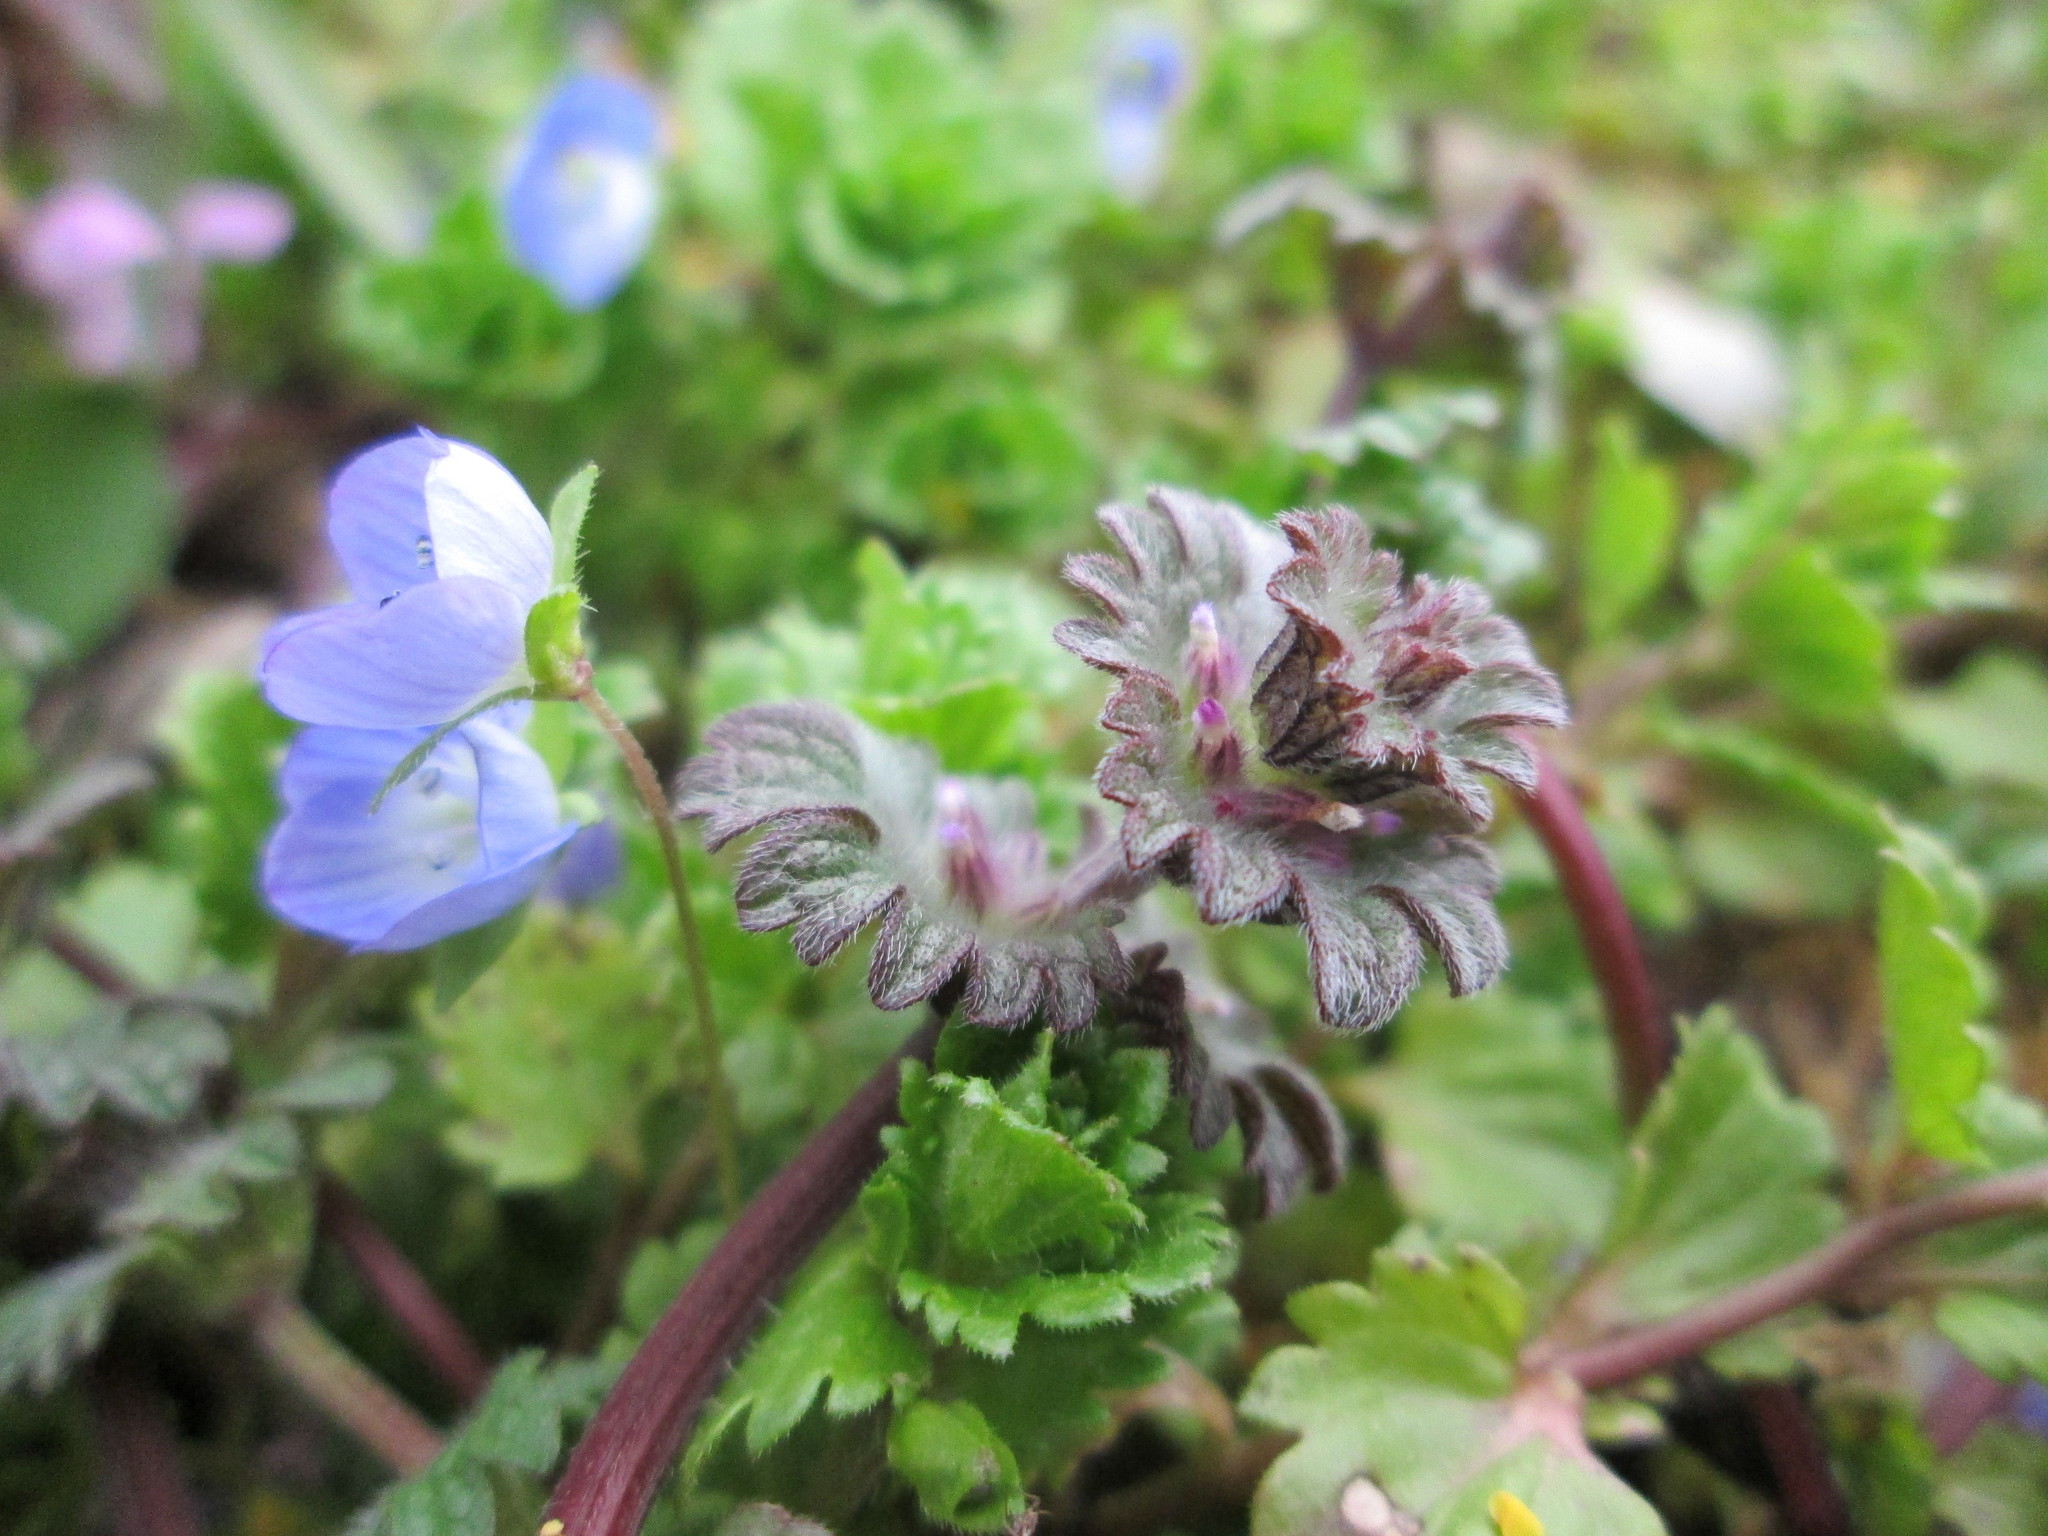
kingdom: Plantae
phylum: Tracheophyta
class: Magnoliopsida
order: Lamiales
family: Lamiaceae
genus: Lamium
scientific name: Lamium amplexicaule
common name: Henbit dead-nettle
